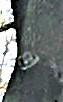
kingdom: Animalia
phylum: Chordata
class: Aves
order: Strigiformes
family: Strigidae
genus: Megascops
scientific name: Megascops asio
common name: Eastern screech-owl
